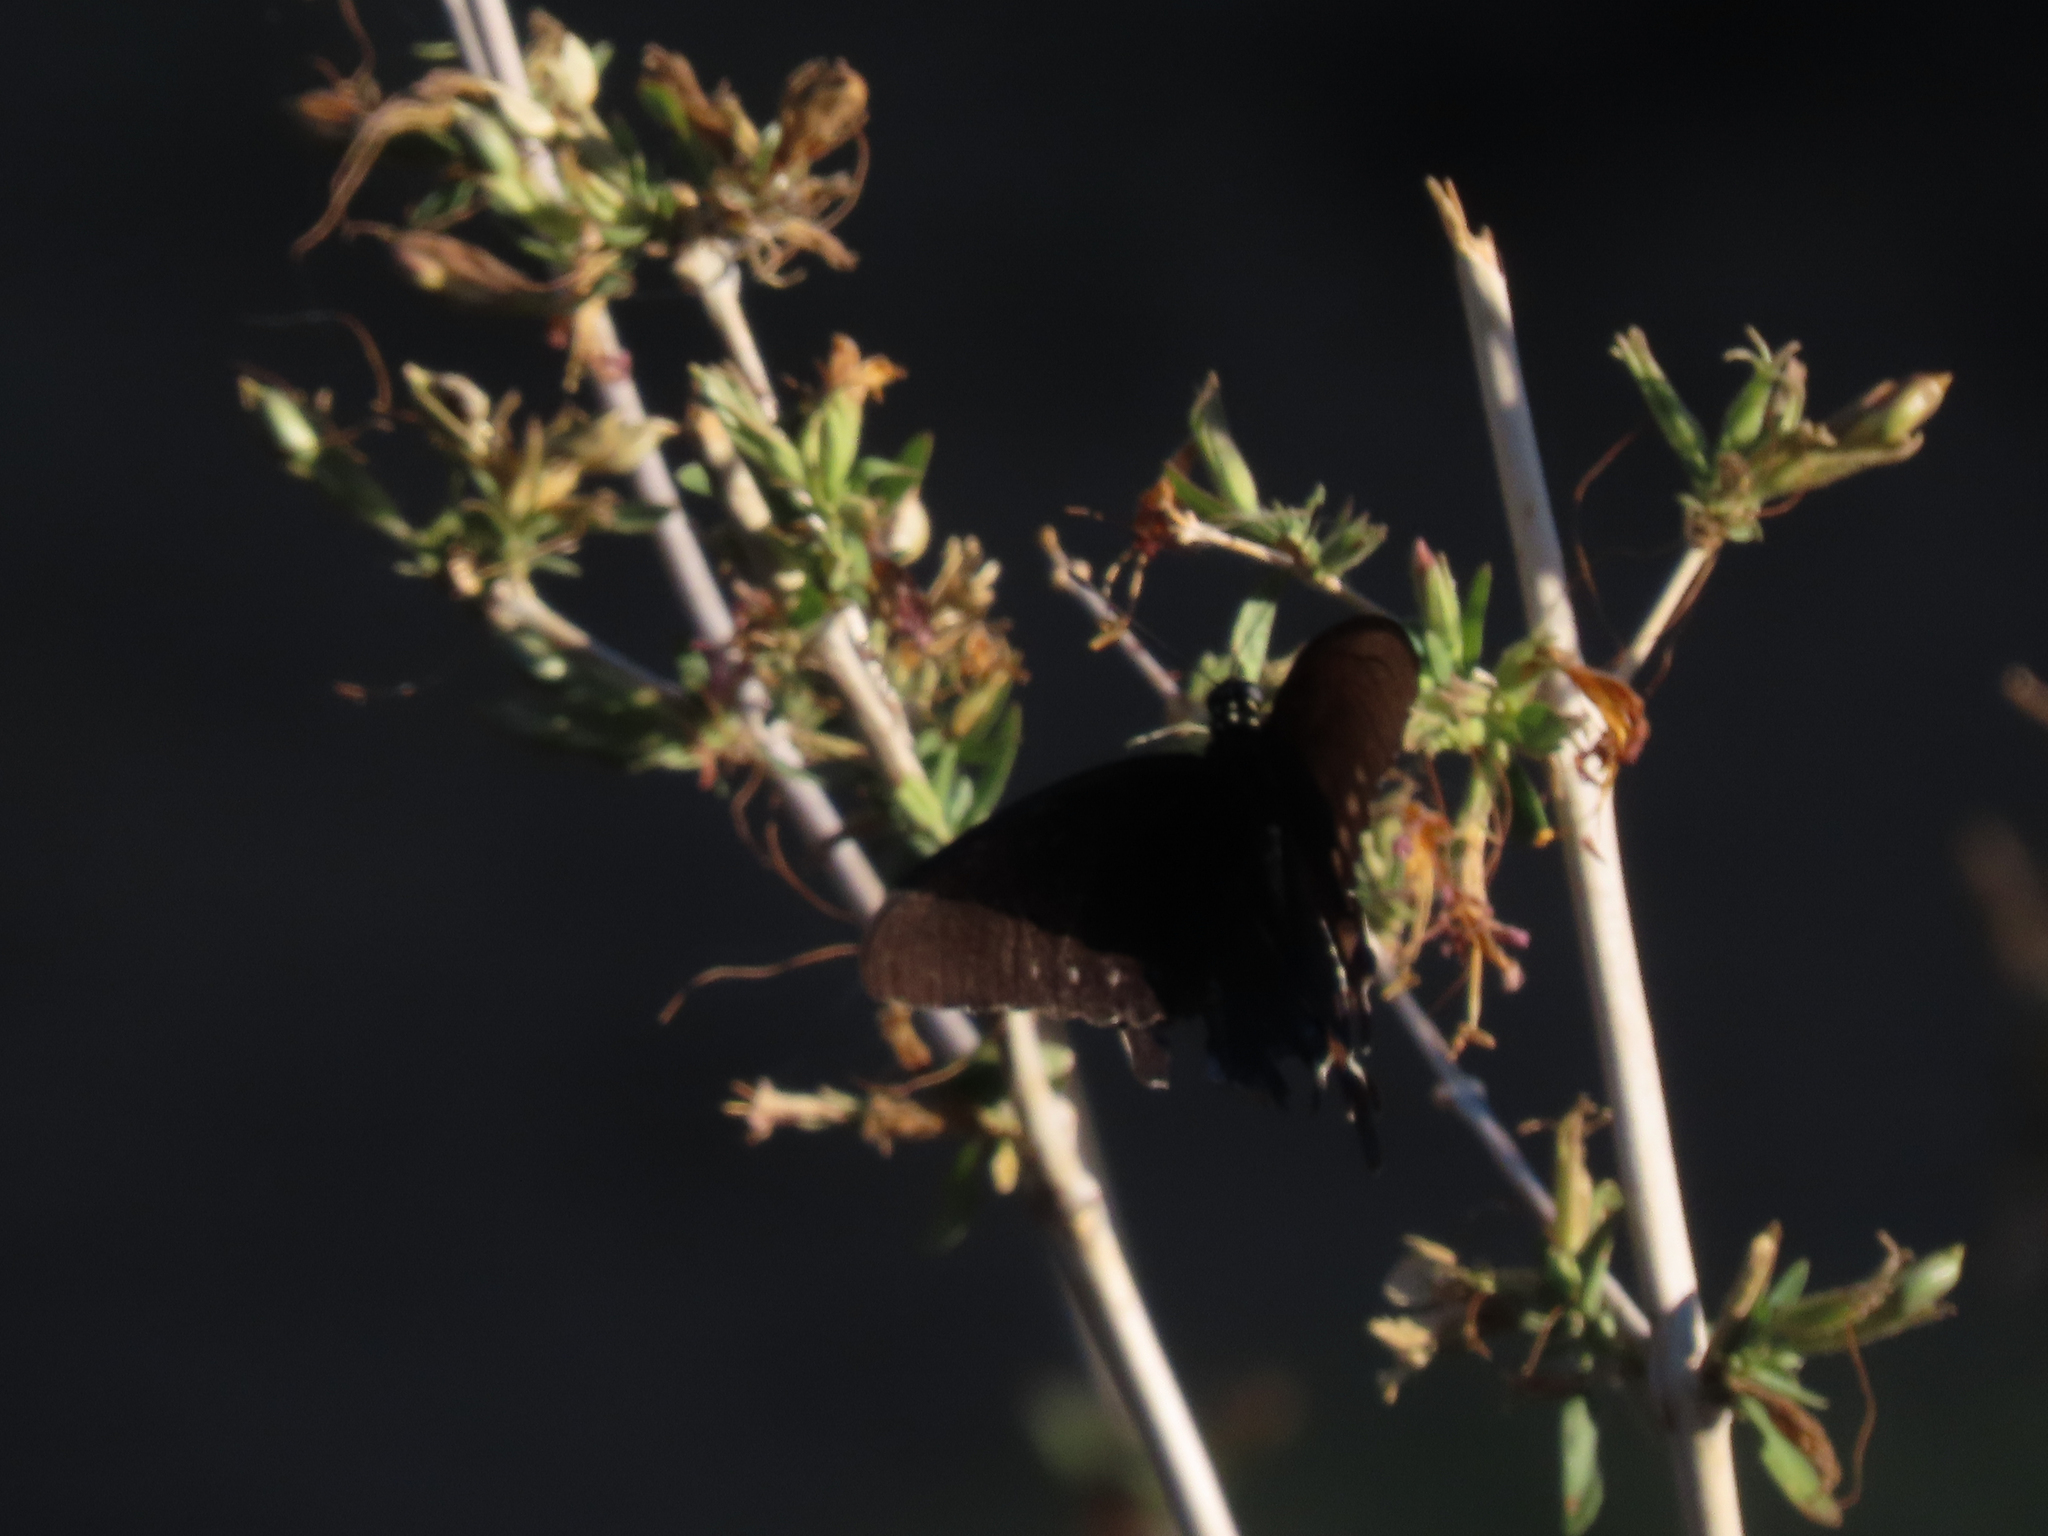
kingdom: Animalia
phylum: Arthropoda
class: Insecta
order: Lepidoptera
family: Papilionidae
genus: Battus
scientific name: Battus philenor
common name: Pipevine swallowtail
